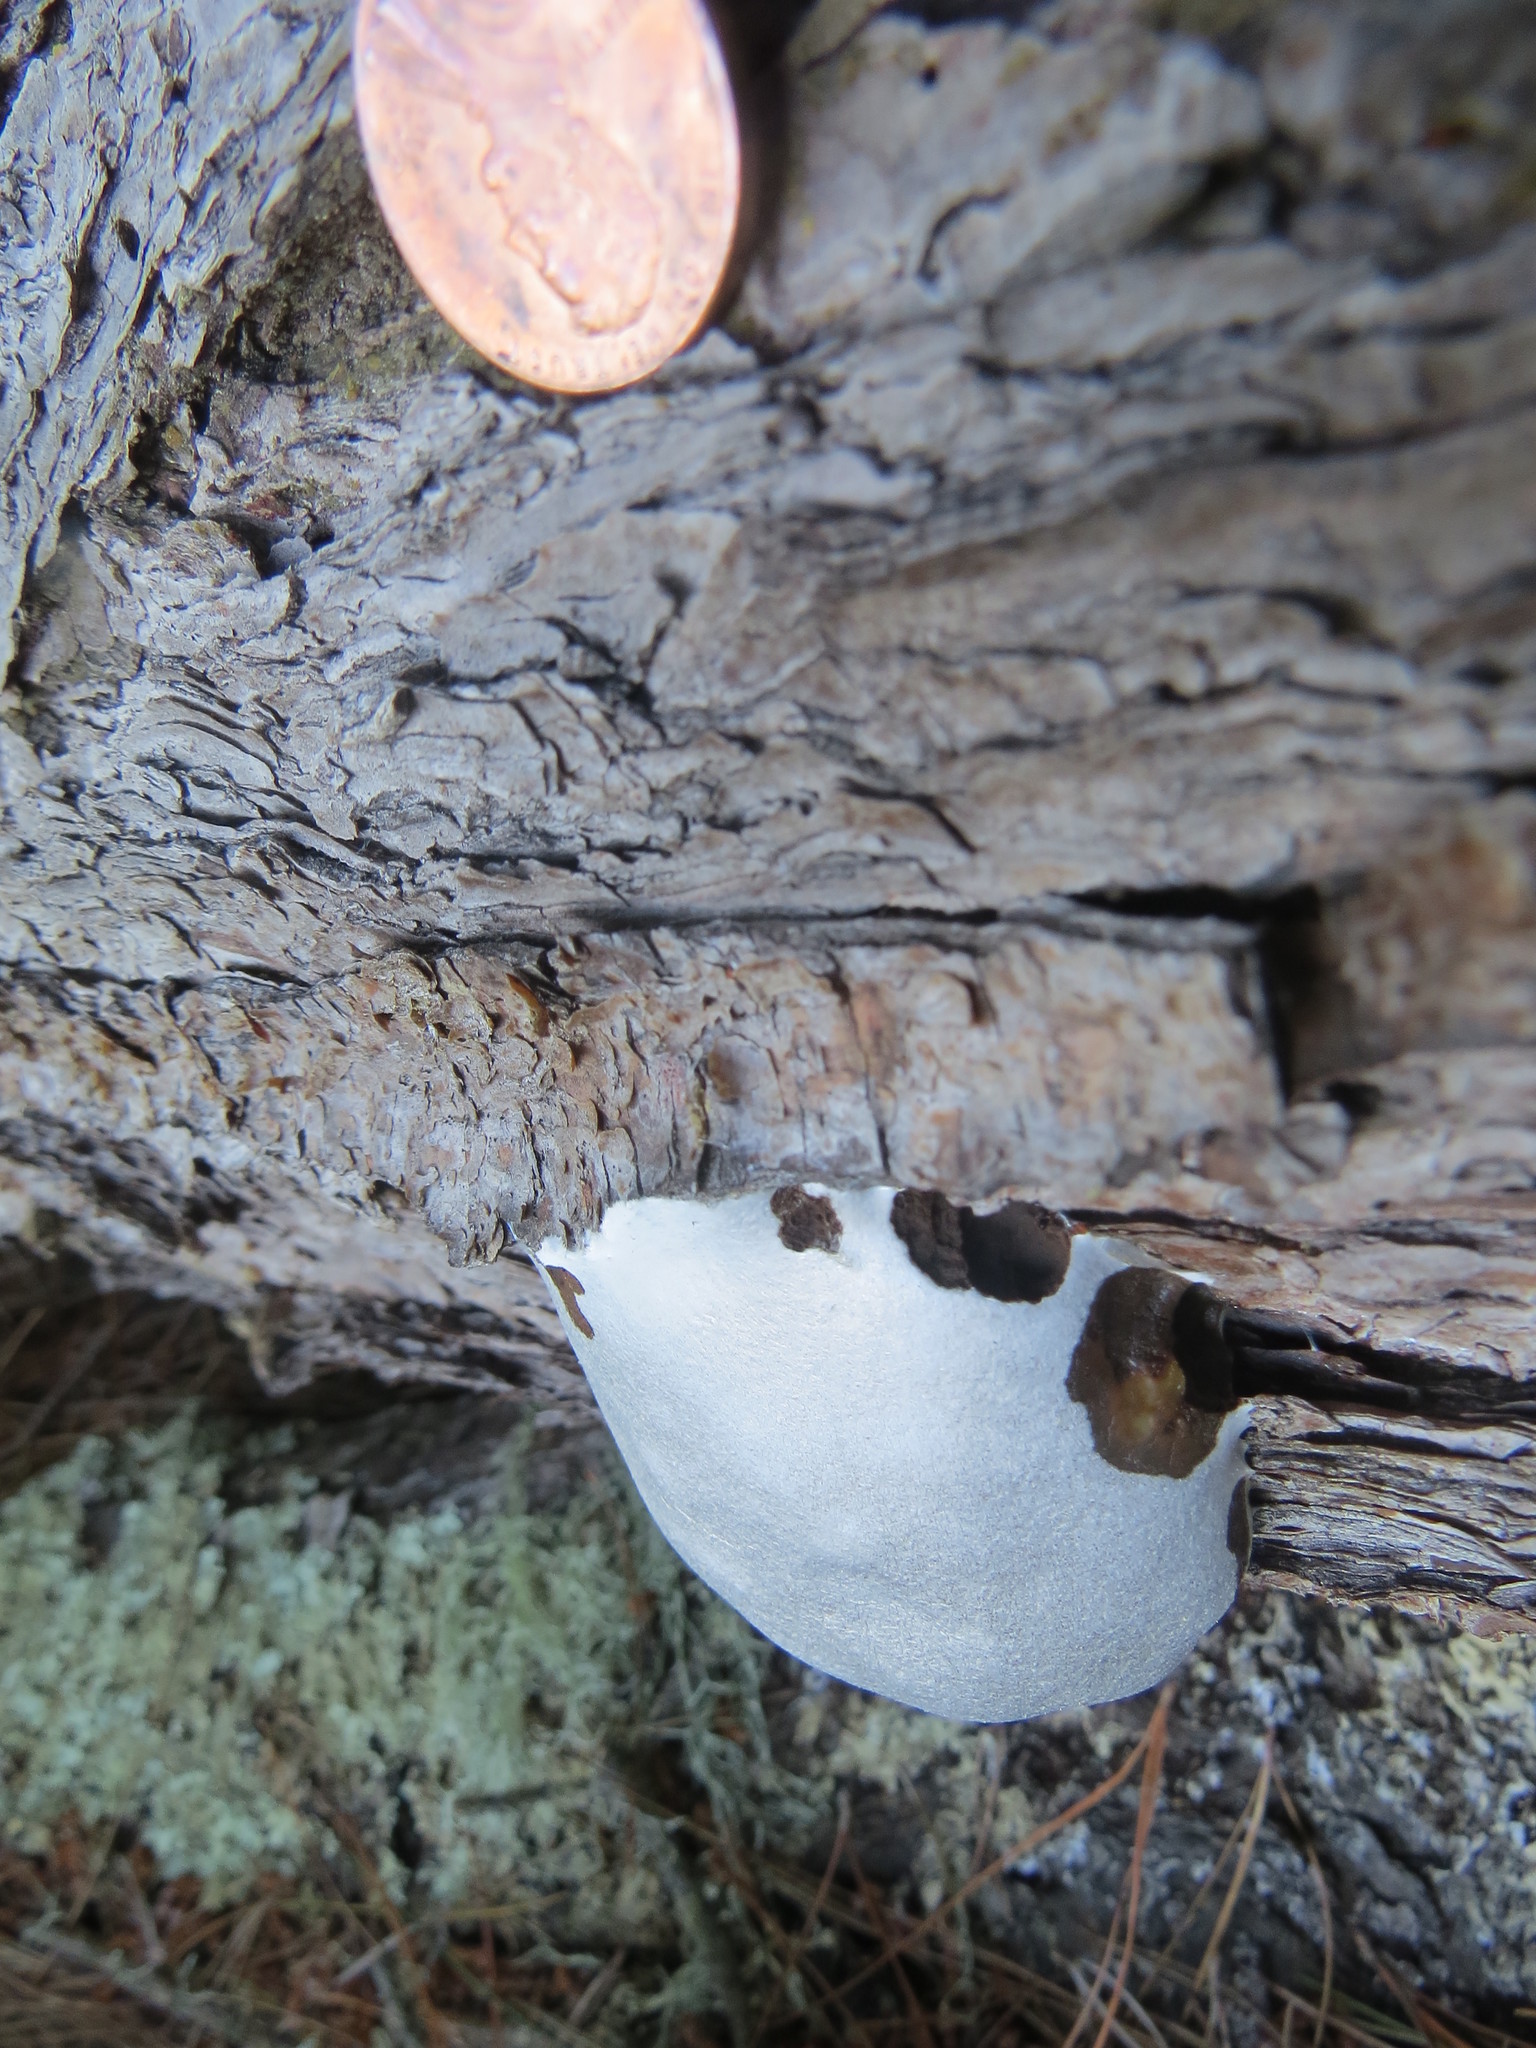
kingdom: Protozoa
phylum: Mycetozoa
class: Myxomycetes
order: Cribrariales
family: Tubiferaceae
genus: Reticularia
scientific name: Reticularia lycoperdon
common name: False puffball
